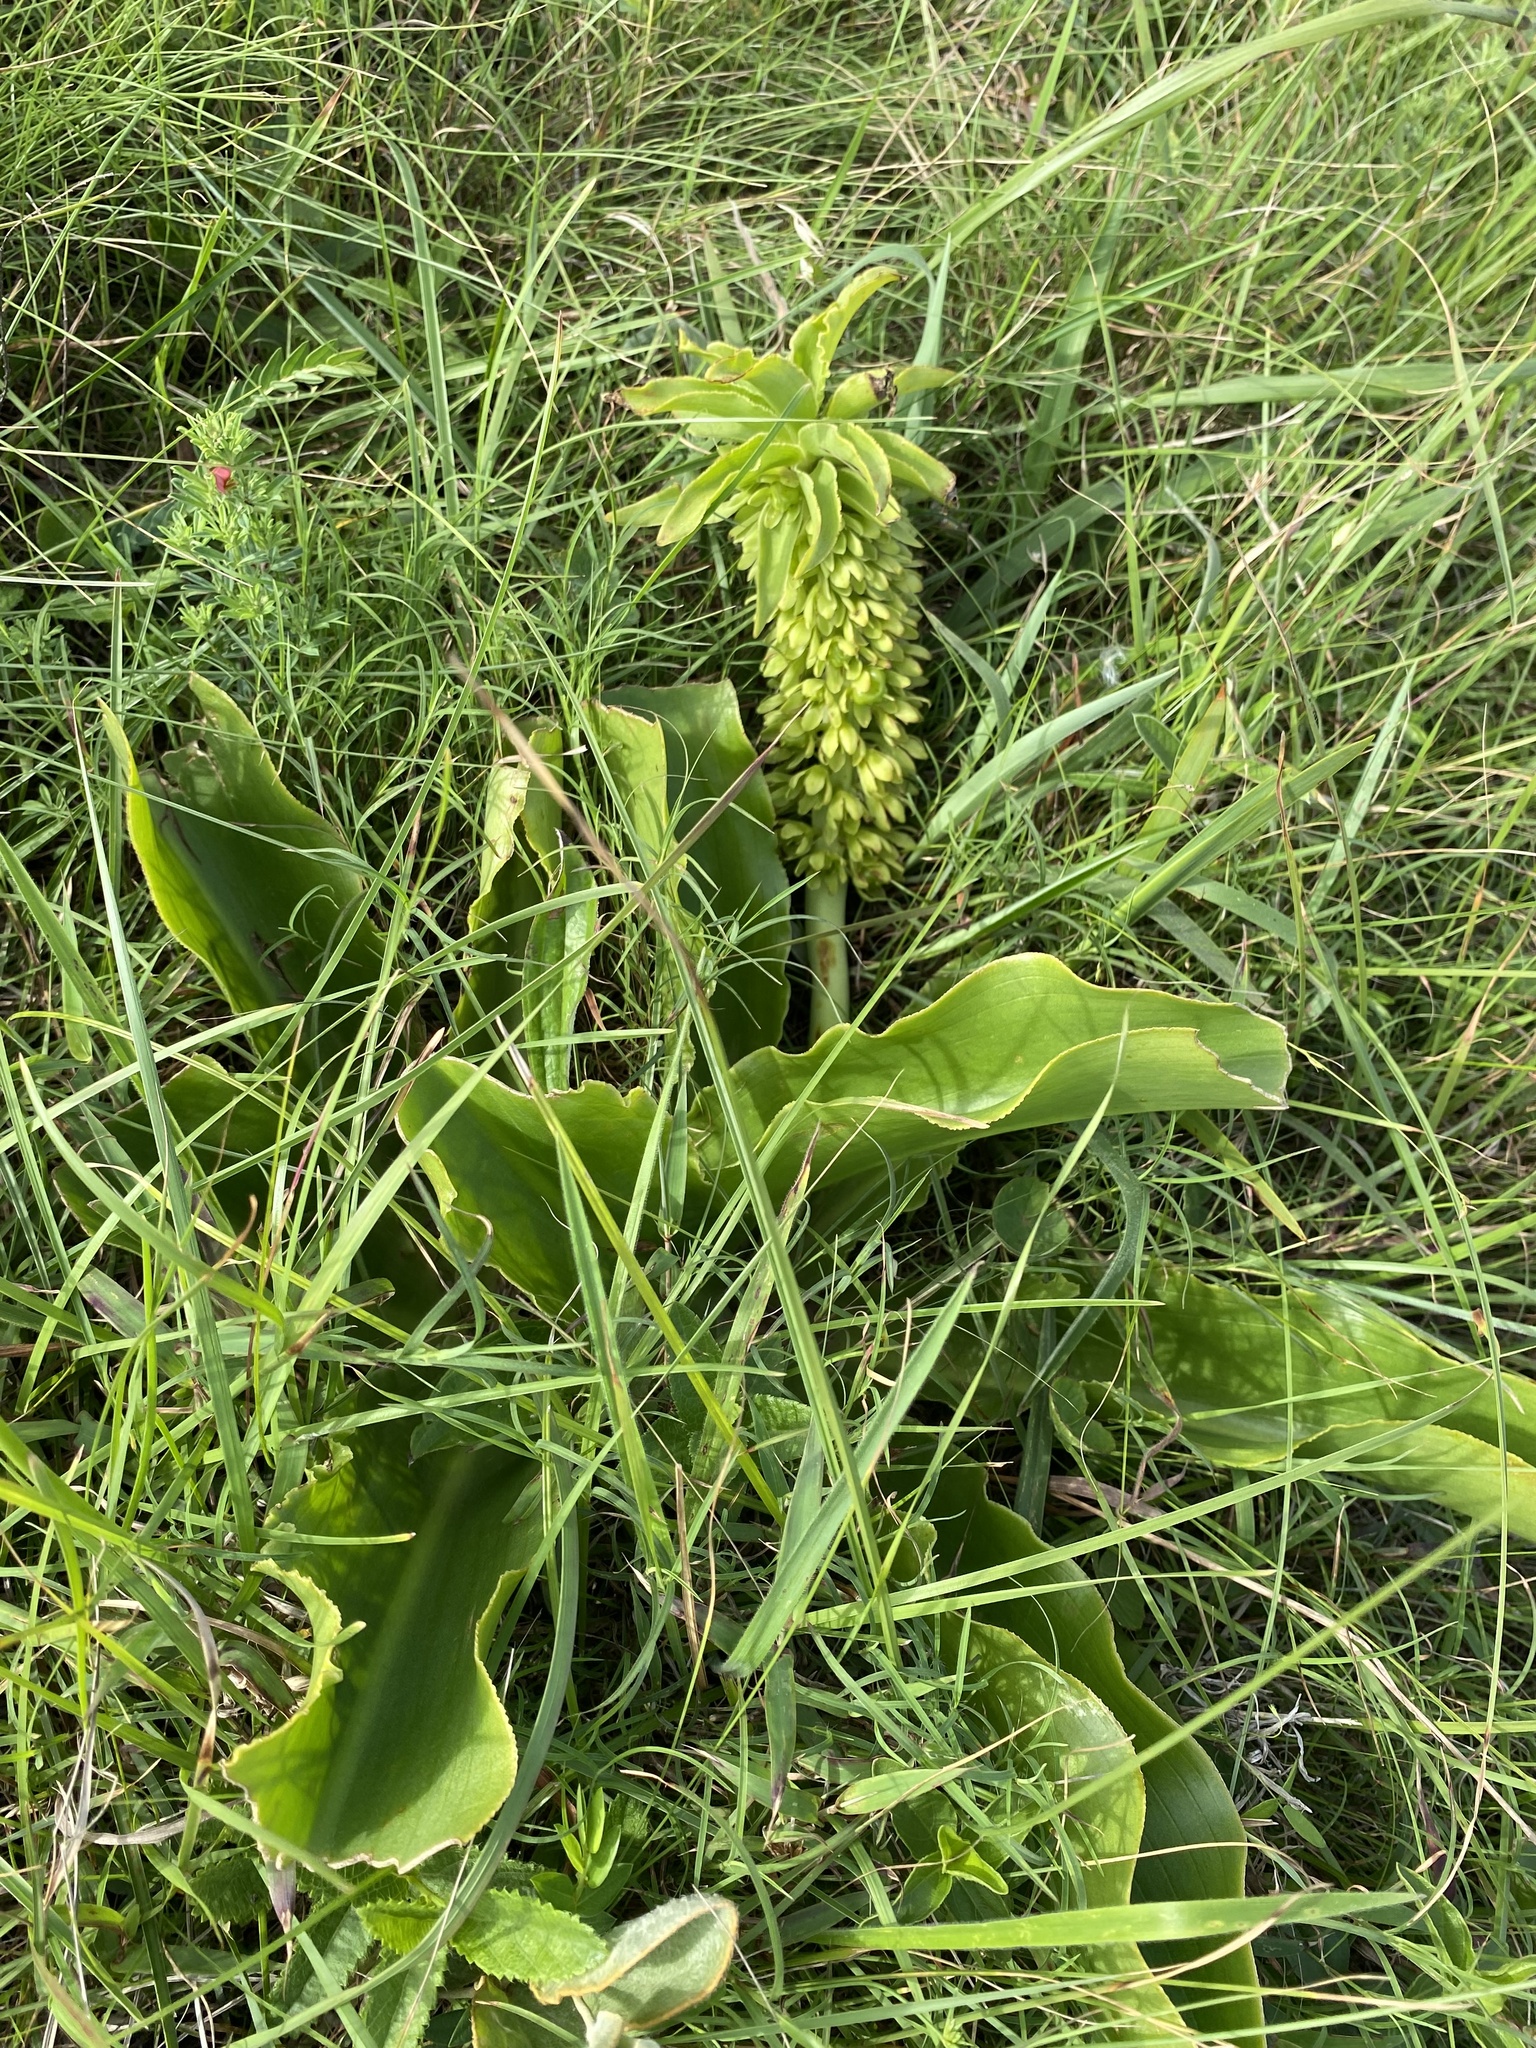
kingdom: Plantae
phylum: Tracheophyta
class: Liliopsida
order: Asparagales
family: Asparagaceae
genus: Eucomis
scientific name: Eucomis autumnalis
